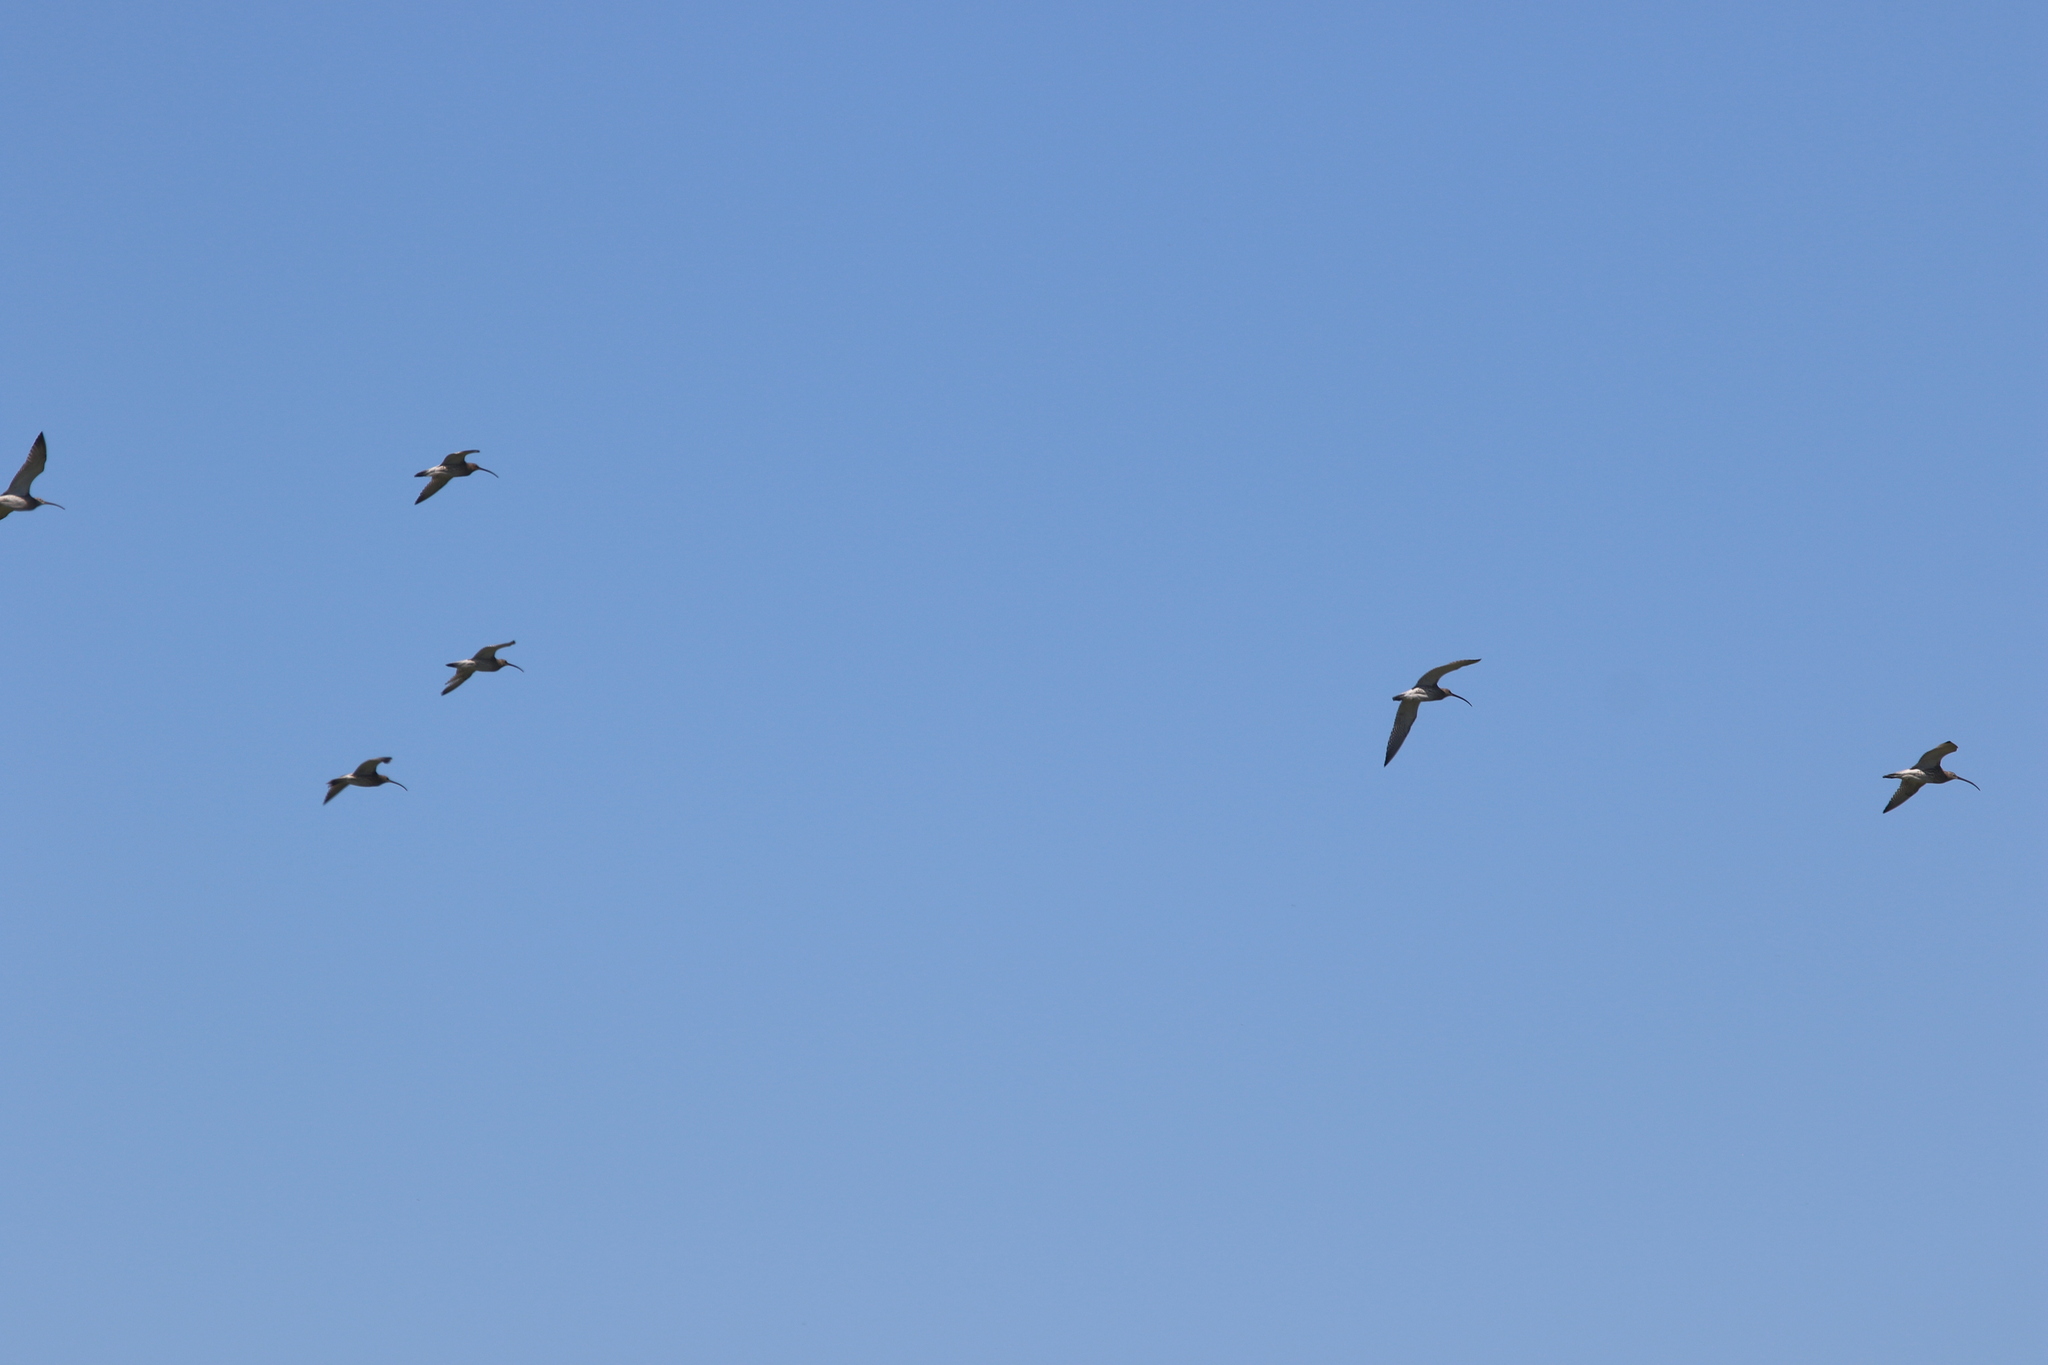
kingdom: Animalia
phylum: Chordata
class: Aves
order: Charadriiformes
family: Scolopacidae
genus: Numenius
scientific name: Numenius arquata
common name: Eurasian curlew
